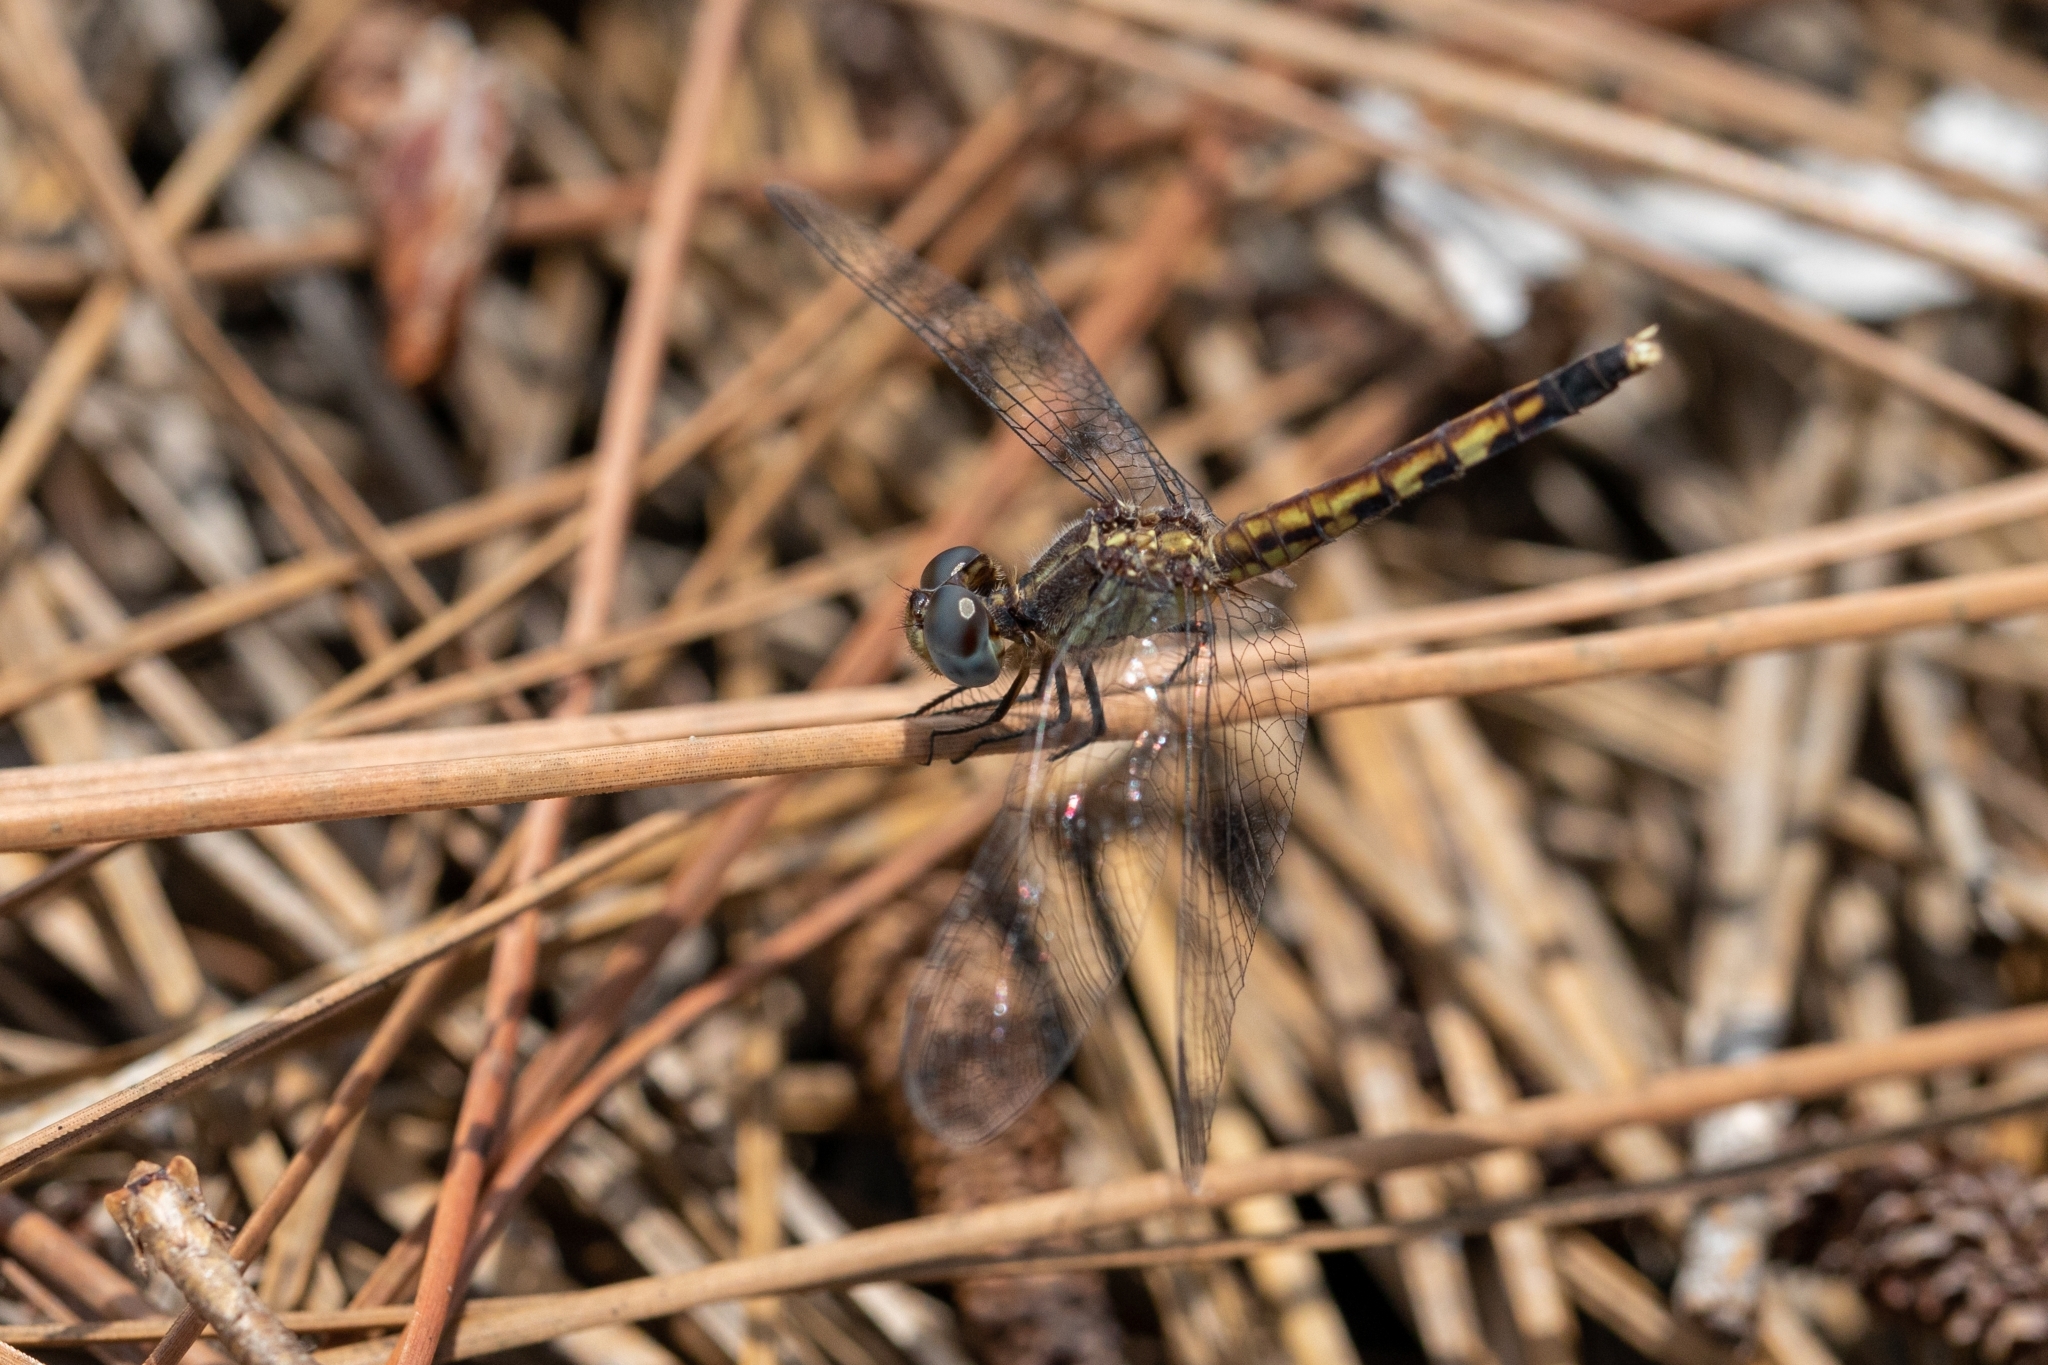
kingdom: Animalia
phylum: Arthropoda
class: Insecta
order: Odonata
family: Libellulidae
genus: Erythrodiplax
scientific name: Erythrodiplax minuscula
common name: Little blue dragonlet
